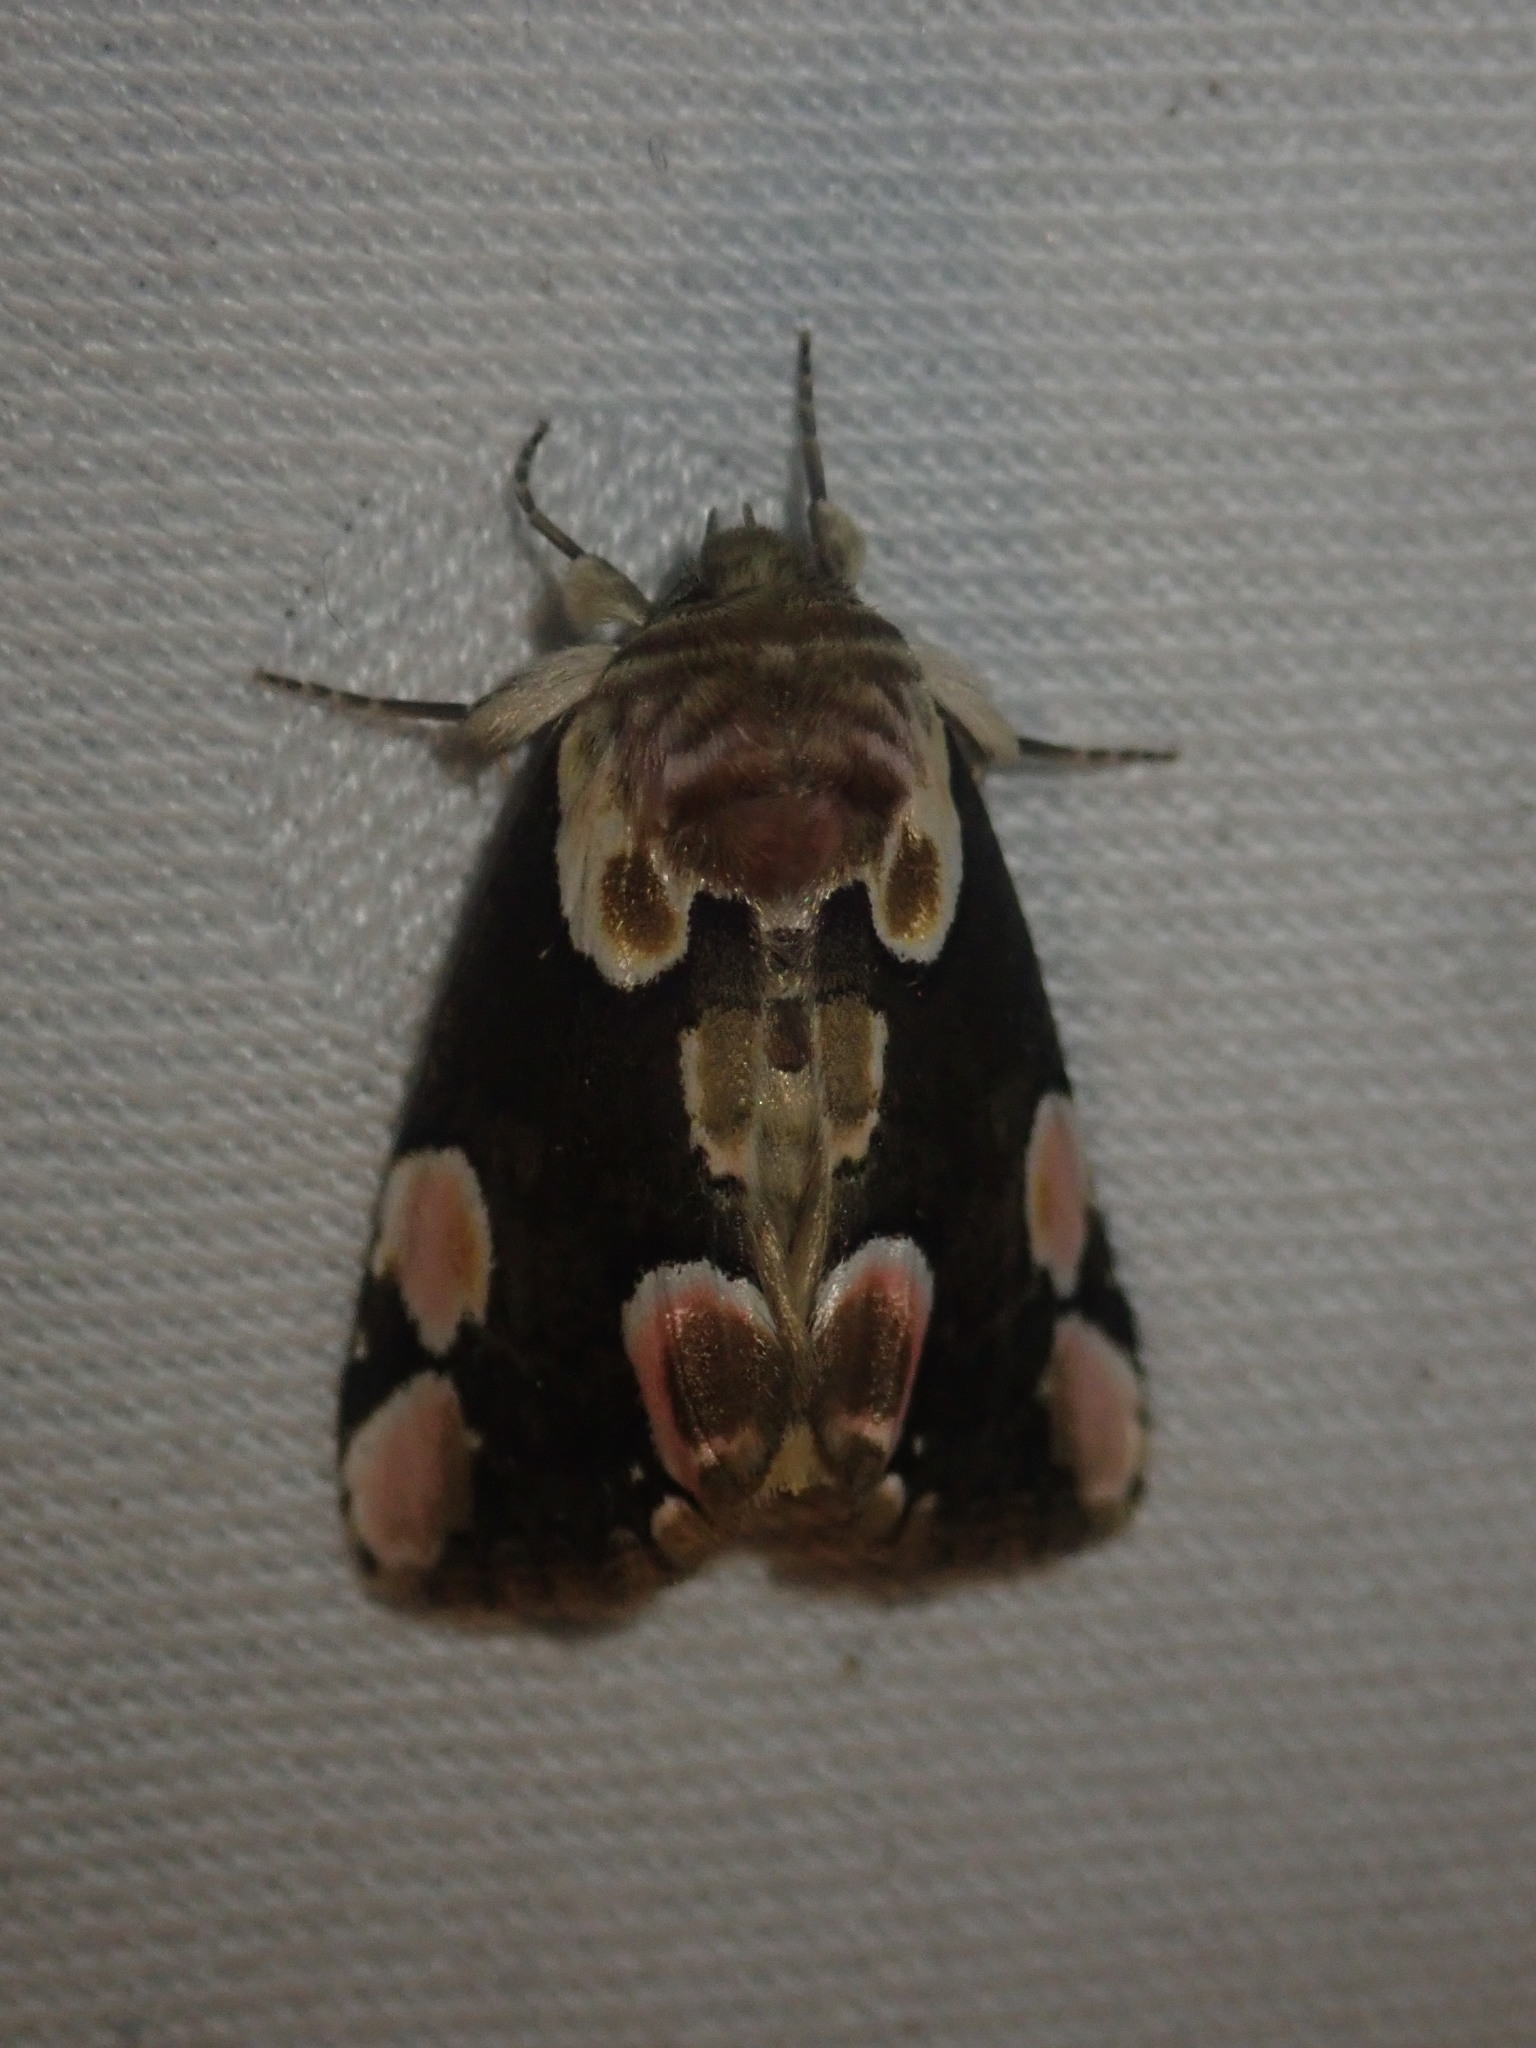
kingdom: Animalia
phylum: Arthropoda
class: Insecta
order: Lepidoptera
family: Drepanidae
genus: Thyatira
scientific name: Thyatira batis
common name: Peach blossom
